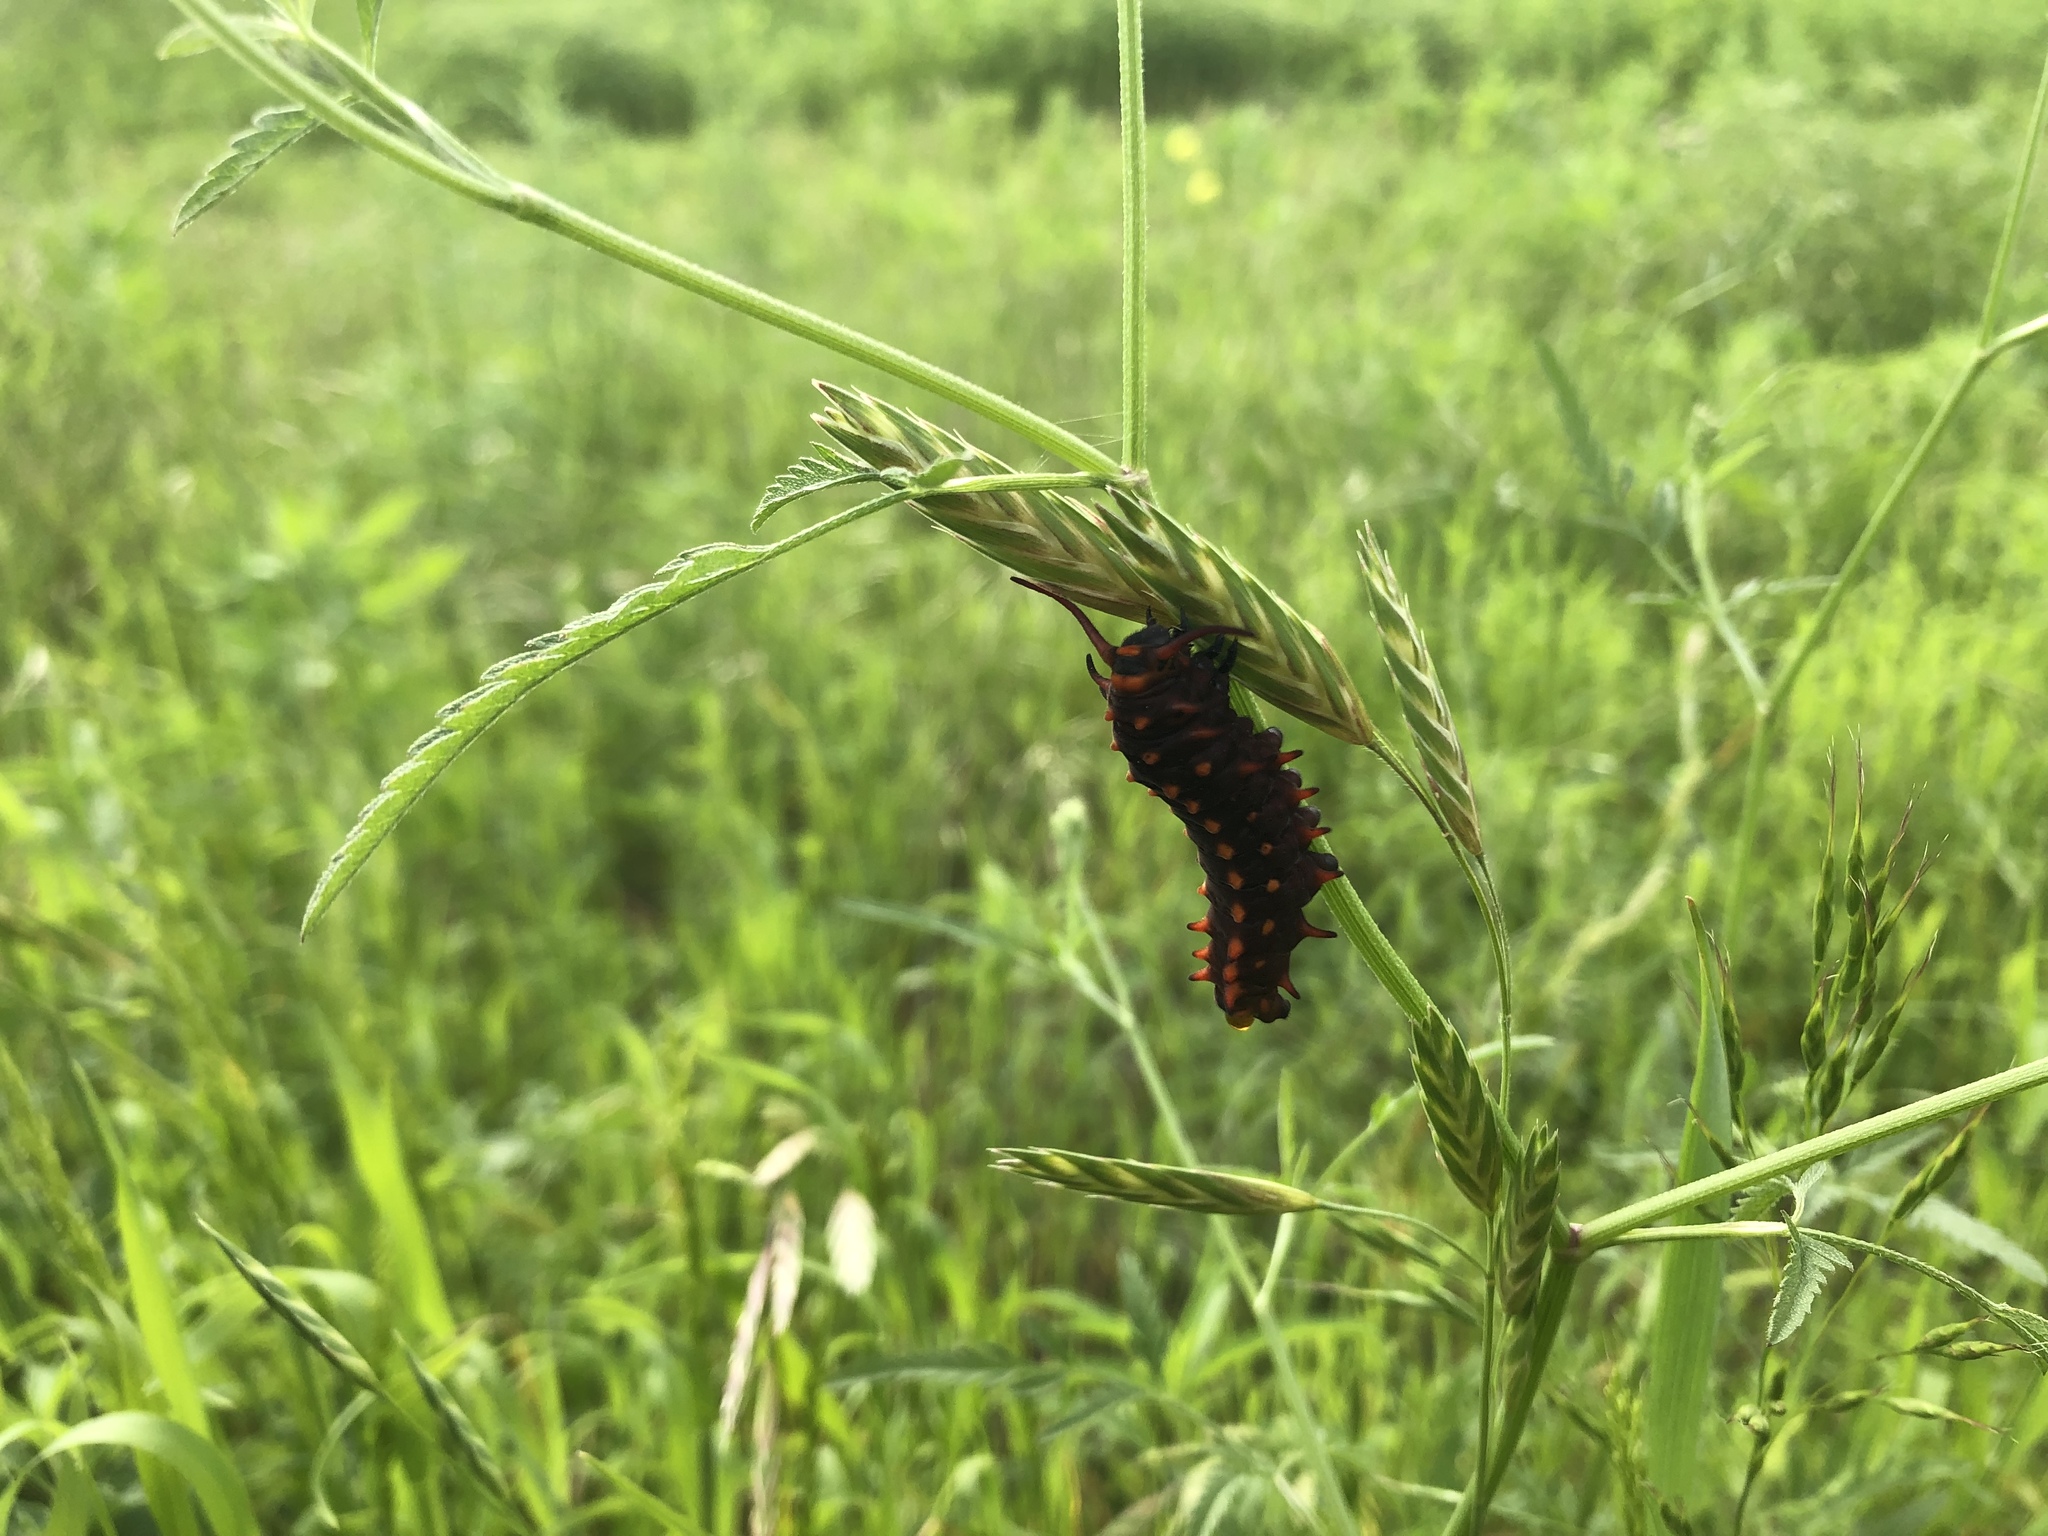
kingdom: Animalia
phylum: Arthropoda
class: Insecta
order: Lepidoptera
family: Papilionidae
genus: Battus
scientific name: Battus philenor
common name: Pipevine swallowtail
